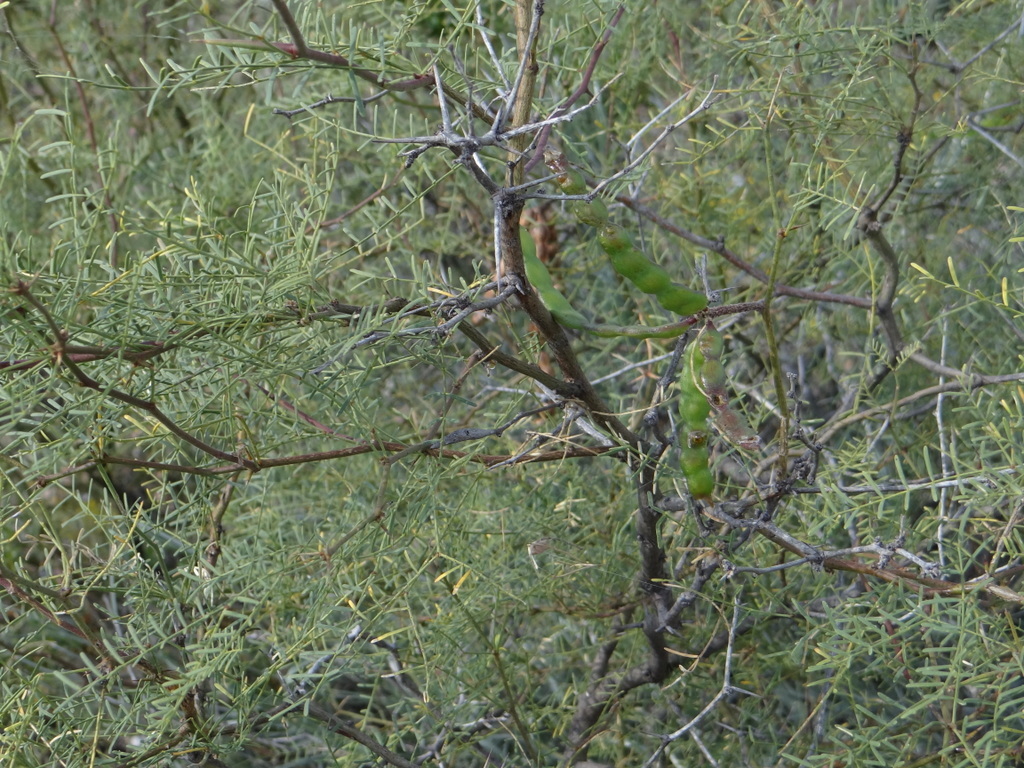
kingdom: Plantae
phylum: Tracheophyta
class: Magnoliopsida
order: Fabales
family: Fabaceae
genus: Prosopis
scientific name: Prosopis flexuosa
